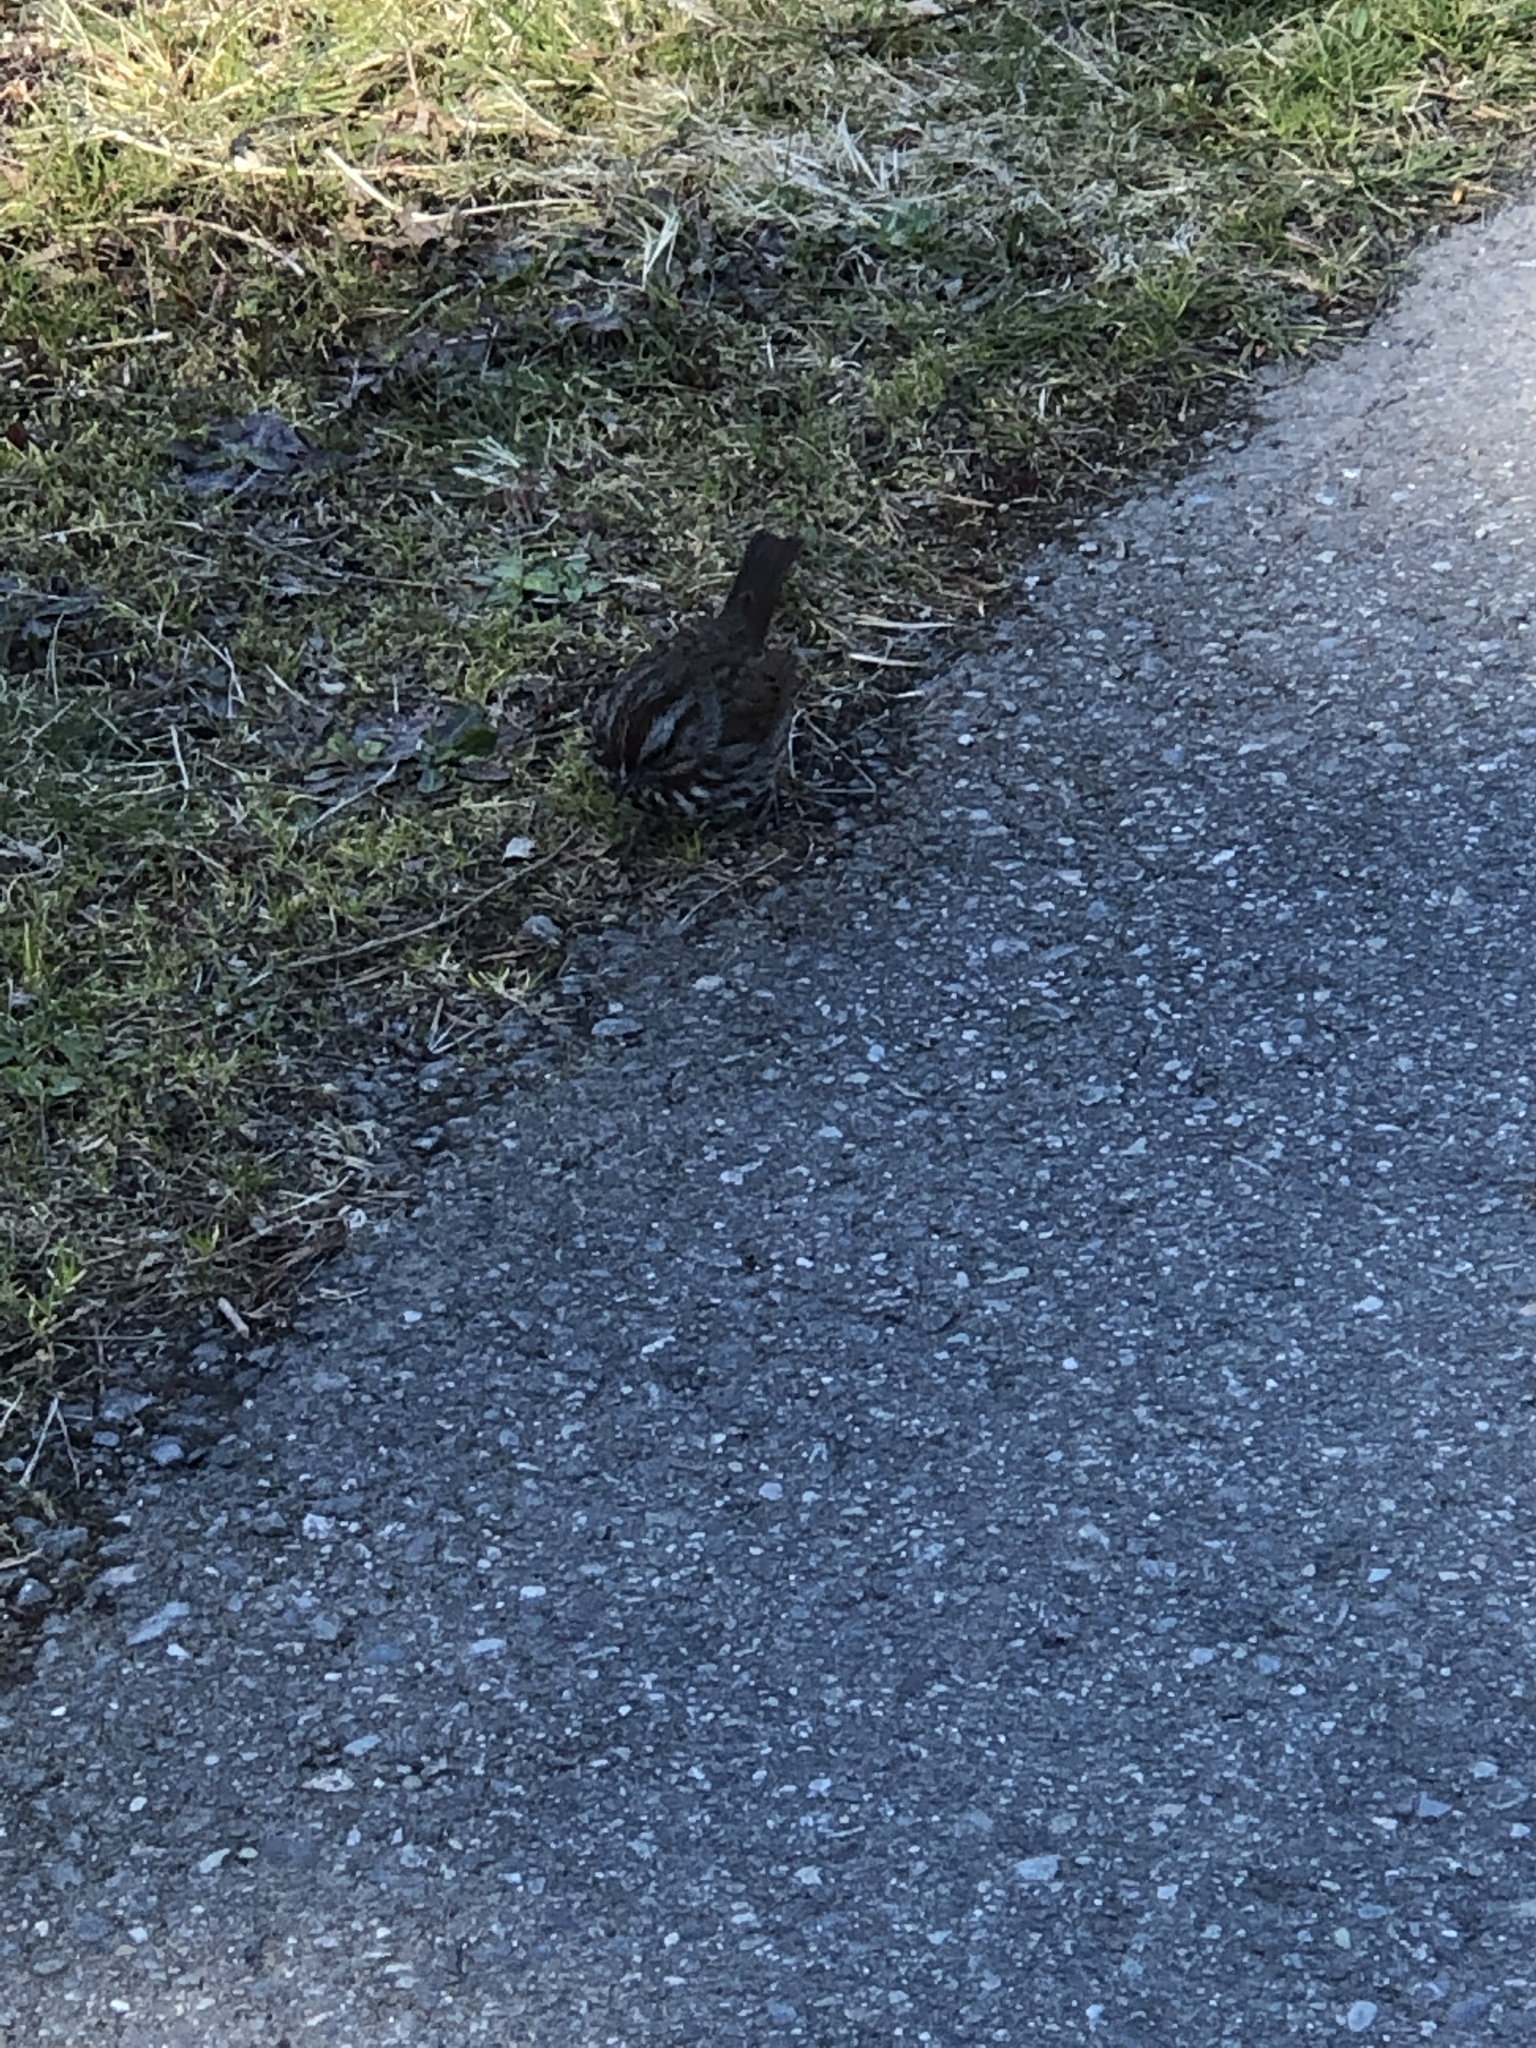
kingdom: Animalia
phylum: Chordata
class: Aves
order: Passeriformes
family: Passerellidae
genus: Melospiza
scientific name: Melospiza melodia
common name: Song sparrow
